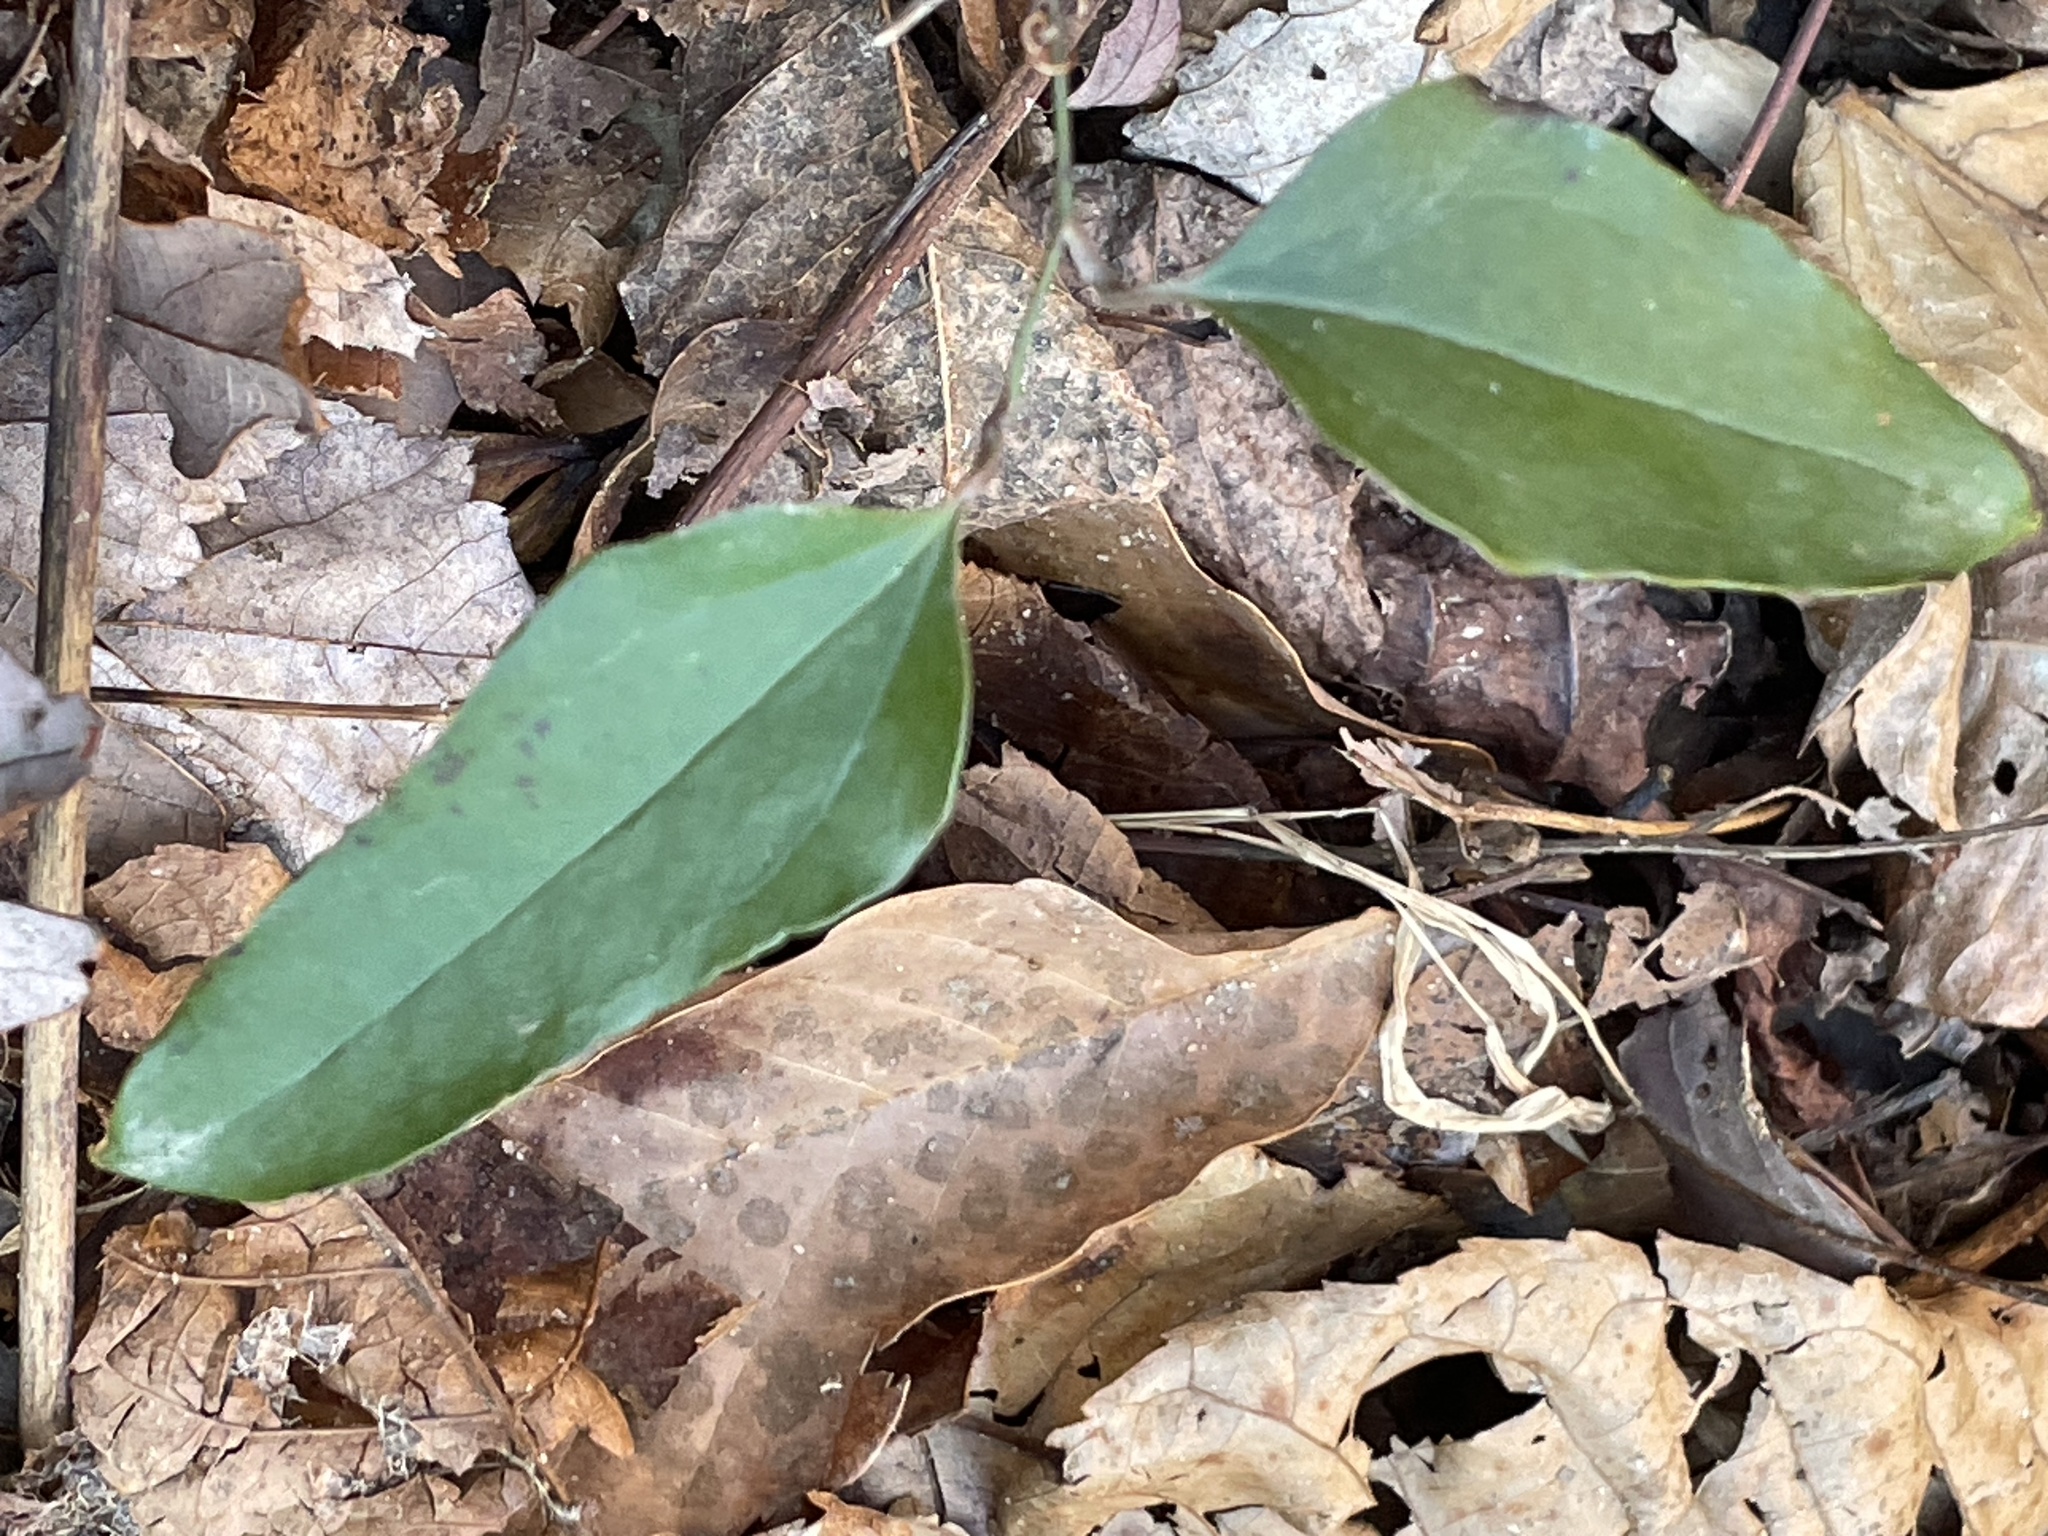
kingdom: Plantae
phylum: Tracheophyta
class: Liliopsida
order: Liliales
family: Smilacaceae
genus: Smilax
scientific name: Smilax glauca
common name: Cat greenbrier
